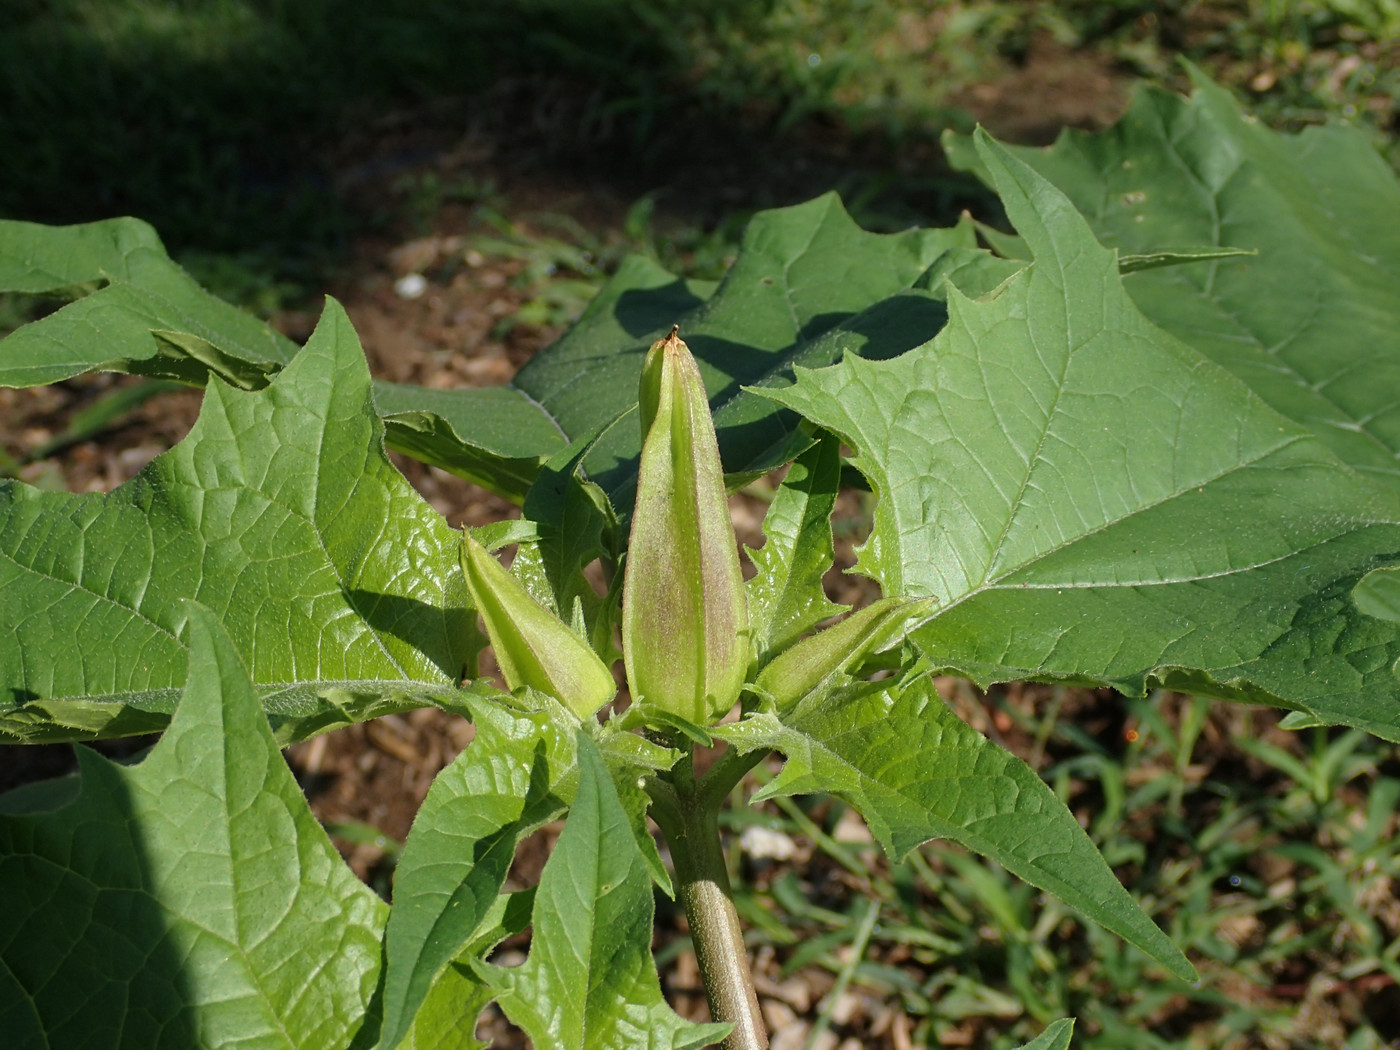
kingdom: Plantae
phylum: Tracheophyta
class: Magnoliopsida
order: Solanales
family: Solanaceae
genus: Datura
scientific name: Datura stramonium
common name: Thorn-apple
